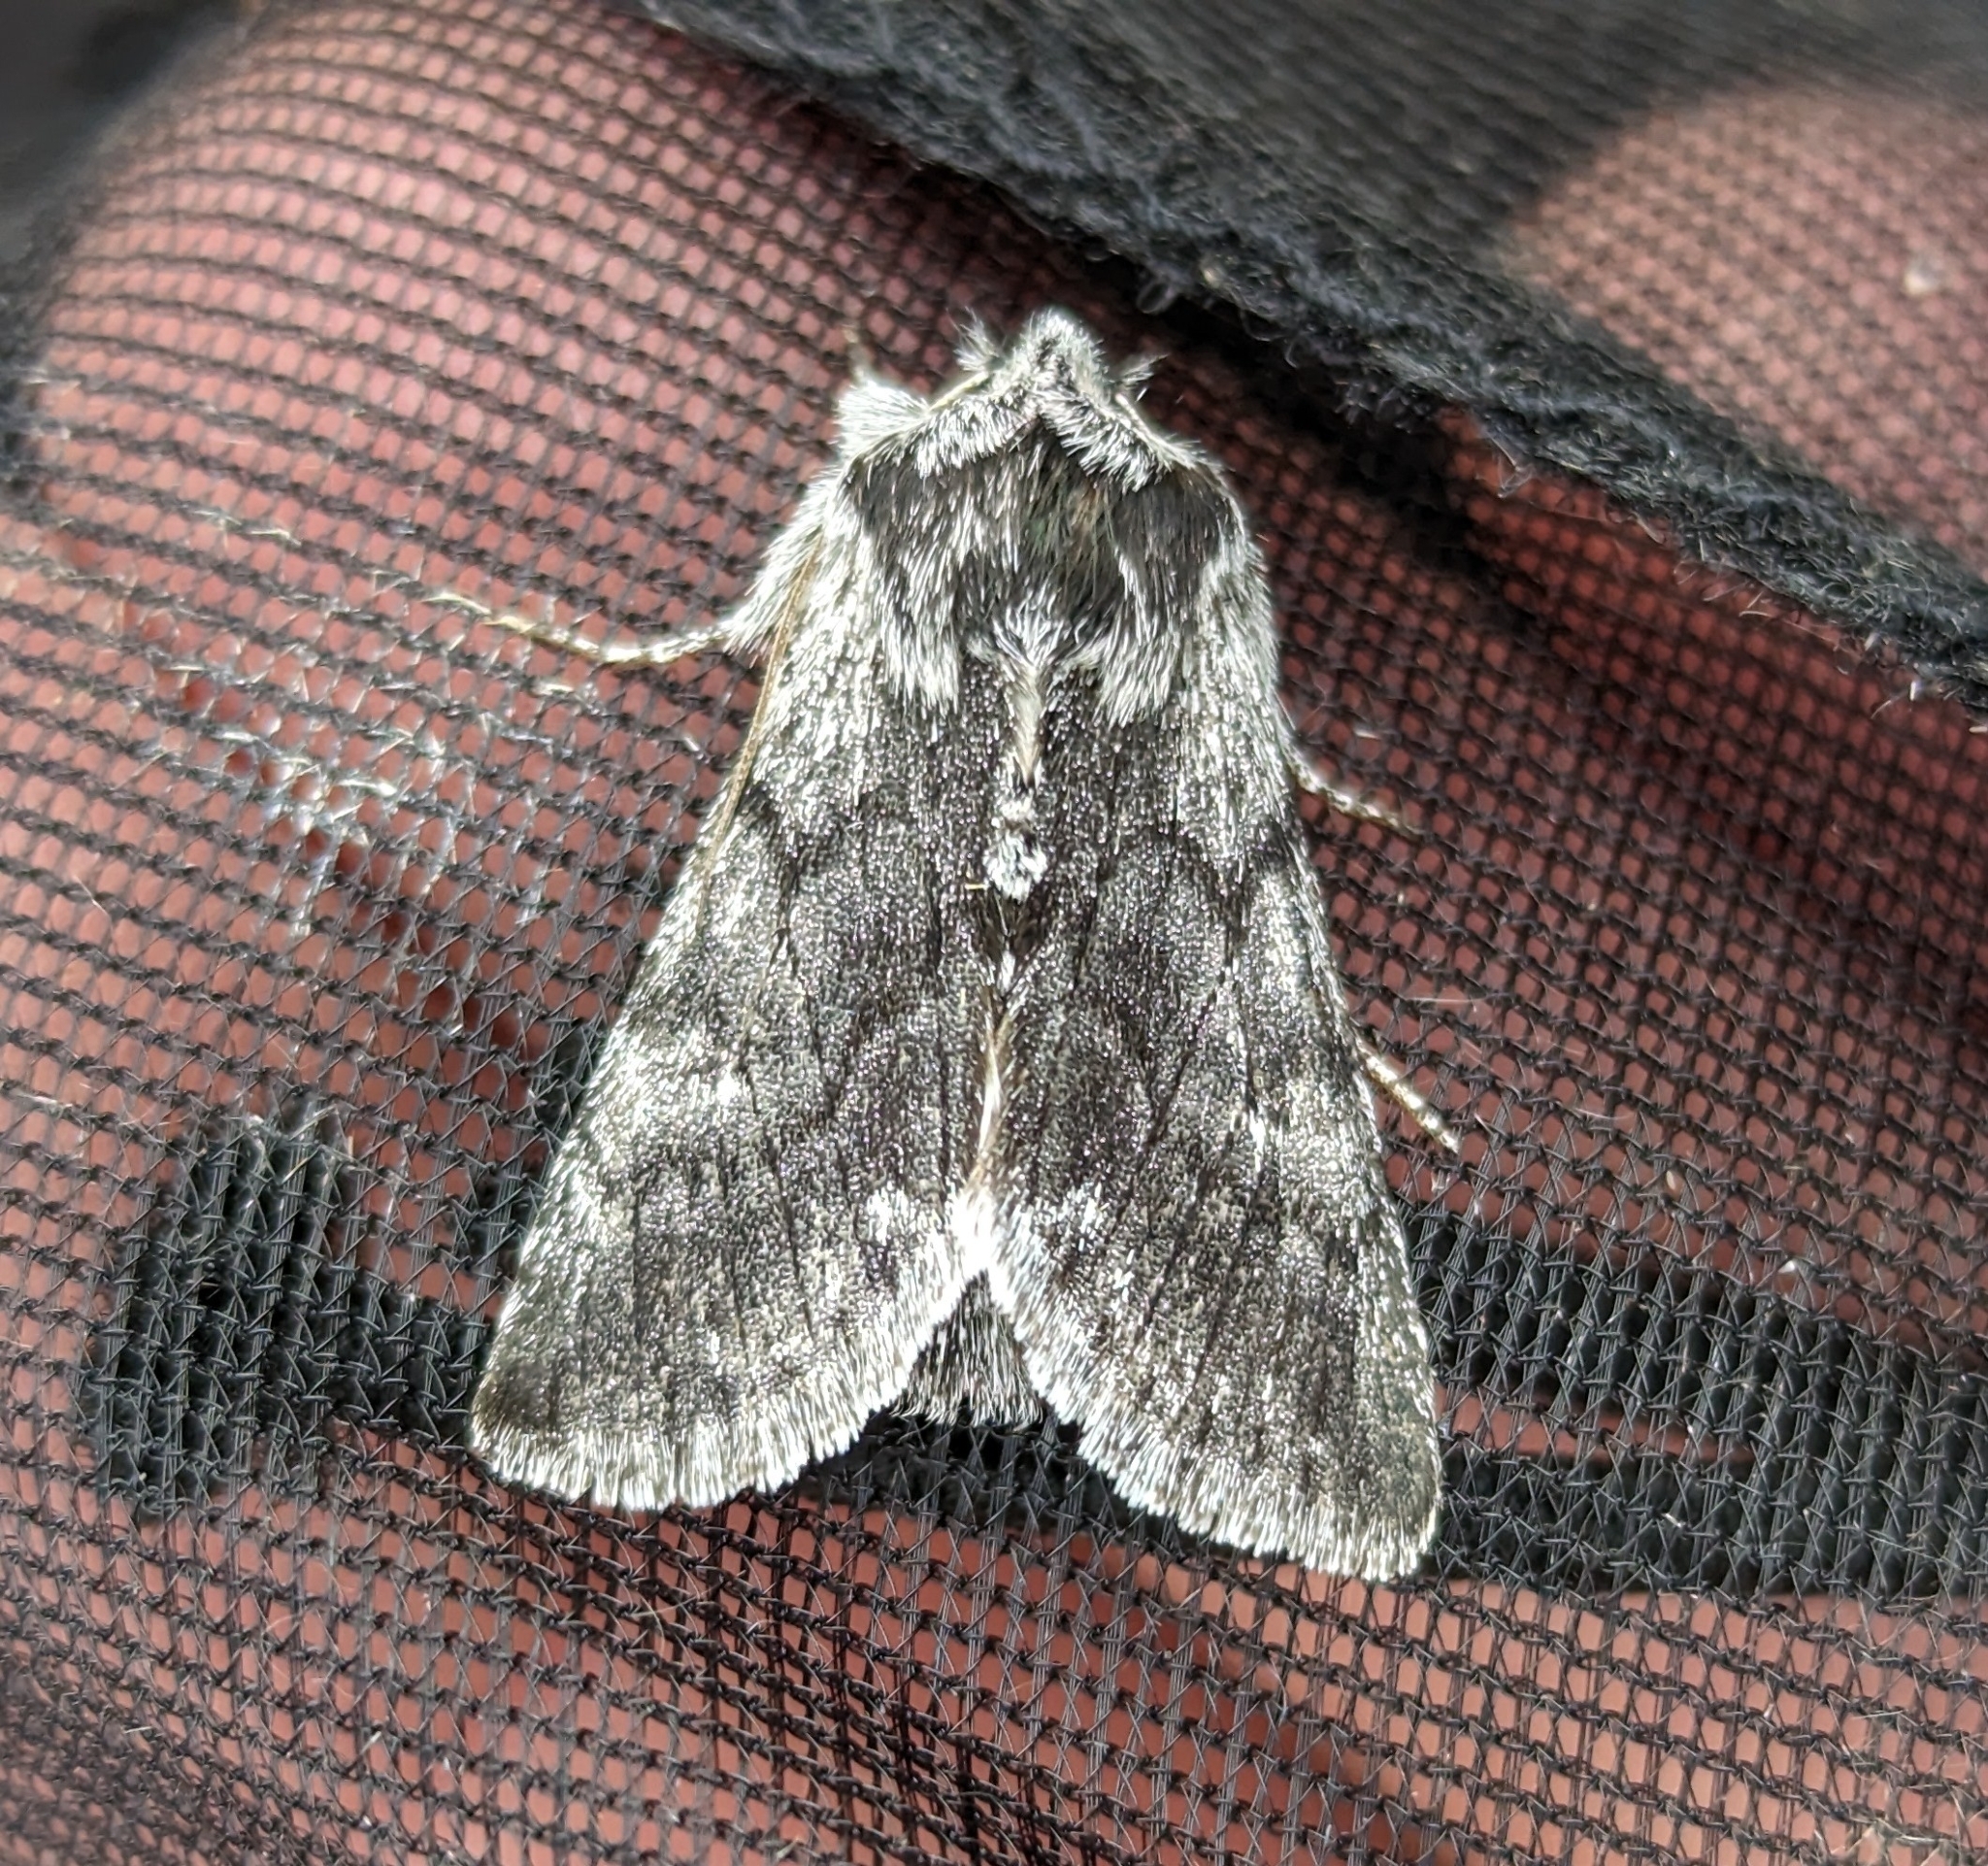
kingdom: Animalia
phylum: Arthropoda
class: Insecta
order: Lepidoptera
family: Noctuidae
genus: Pleromelloida
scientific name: Pleromelloida conserta
